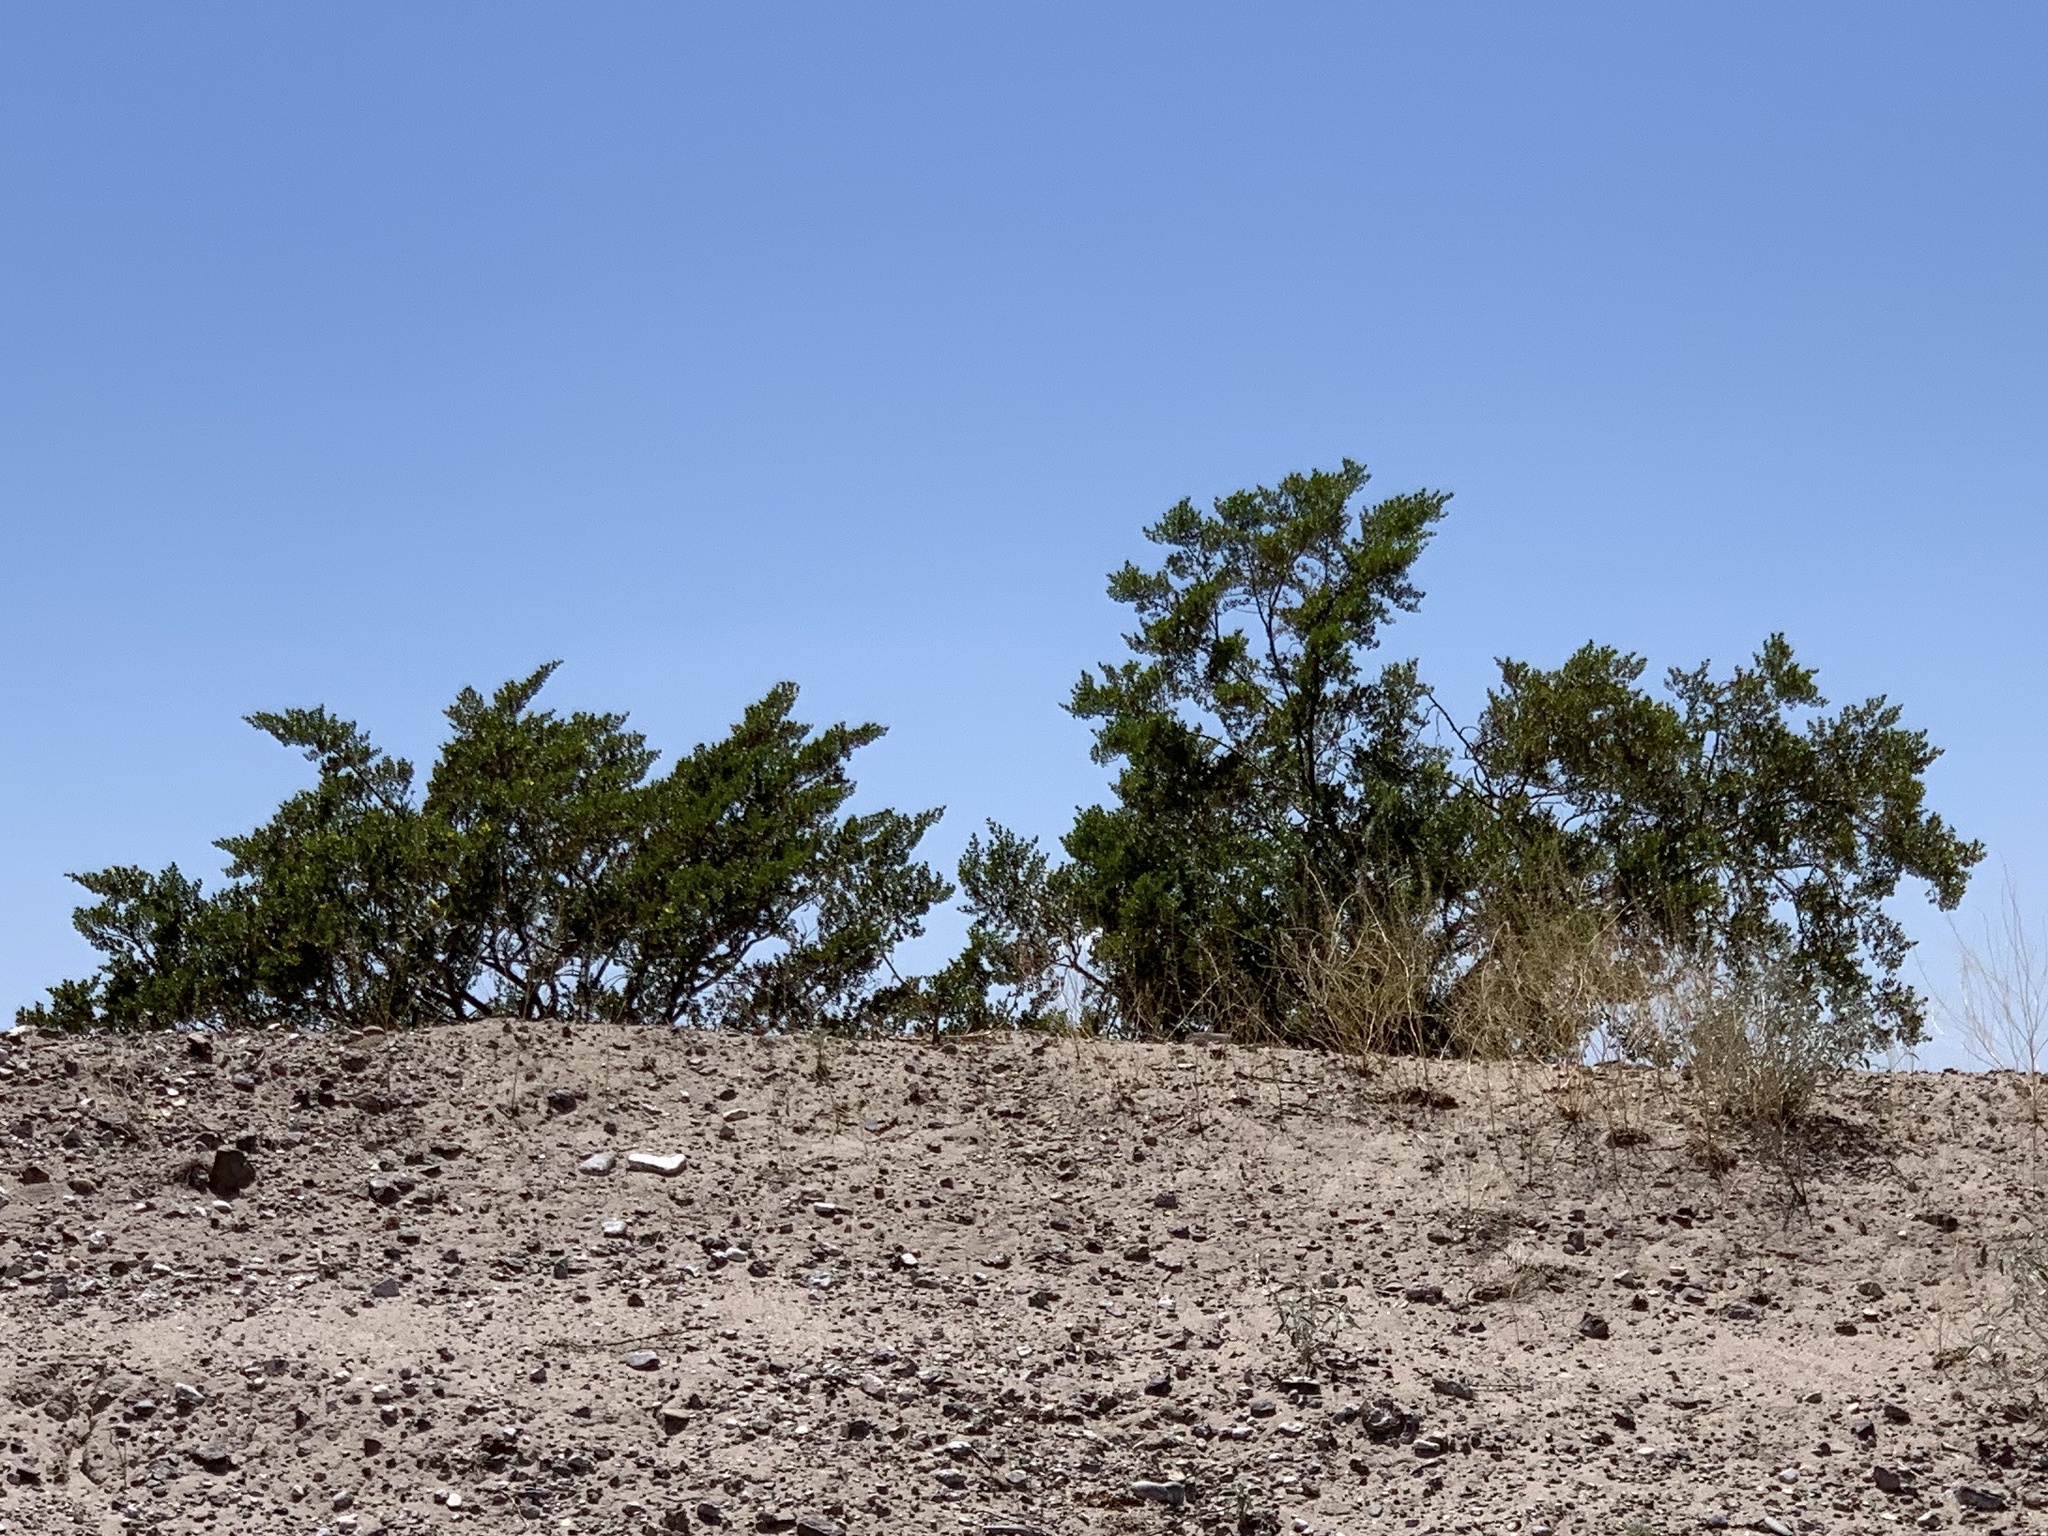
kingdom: Plantae
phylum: Tracheophyta
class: Magnoliopsida
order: Zygophyllales
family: Zygophyllaceae
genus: Larrea
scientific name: Larrea tridentata
